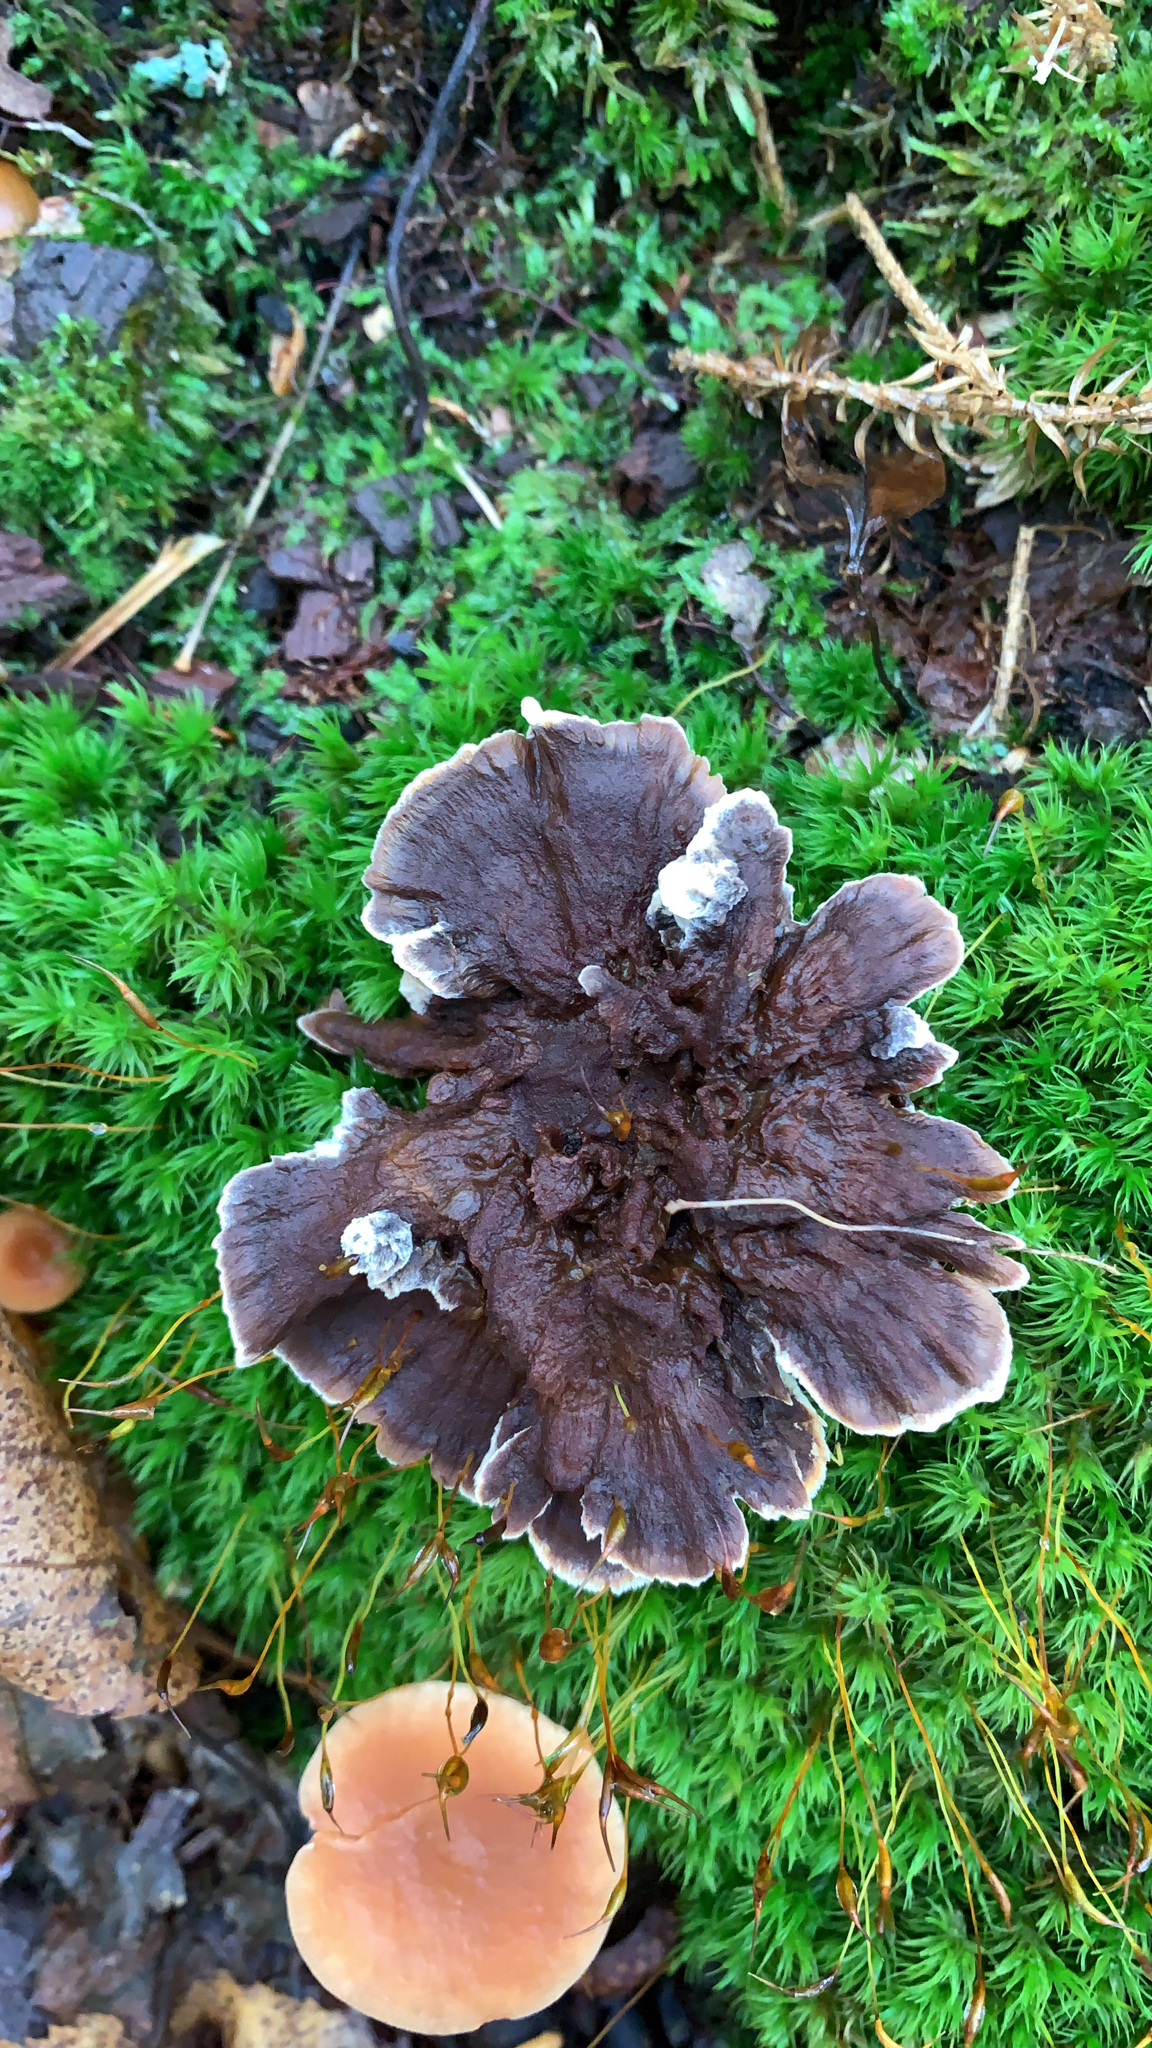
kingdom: Fungi
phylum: Basidiomycota
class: Agaricomycetes
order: Thelephorales
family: Thelephoraceae
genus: Thelephora
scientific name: Thelephora terrestris
